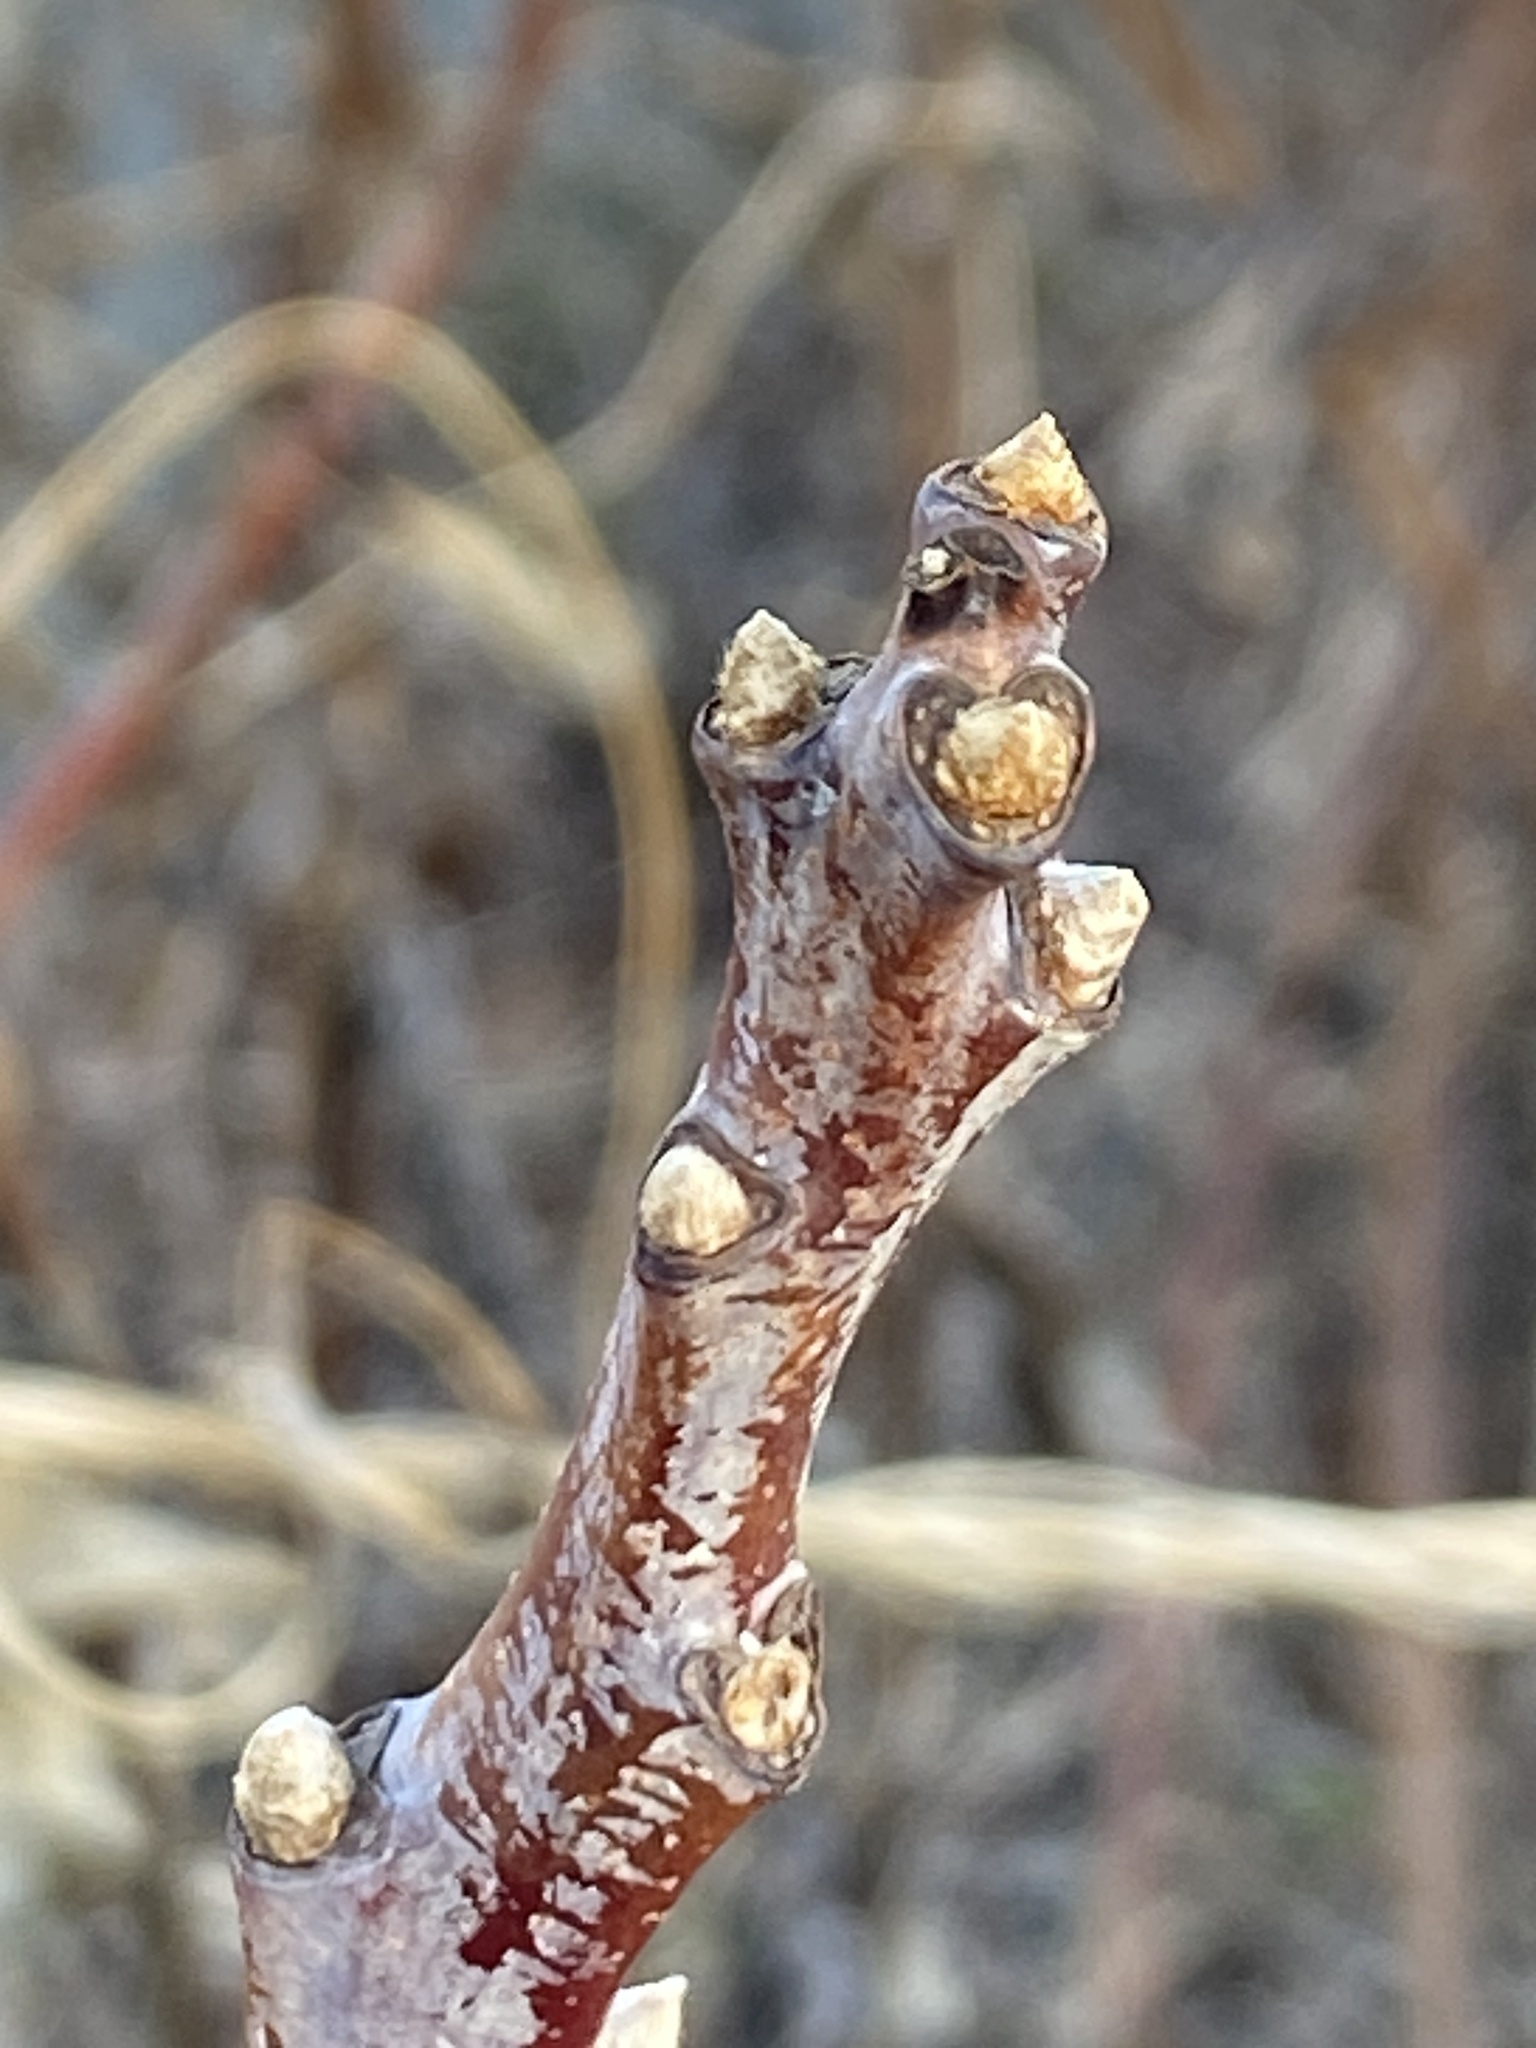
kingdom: Plantae
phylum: Tracheophyta
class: Magnoliopsida
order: Sapindales
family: Anacardiaceae
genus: Rhus
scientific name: Rhus glabra
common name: Scarlet sumac
